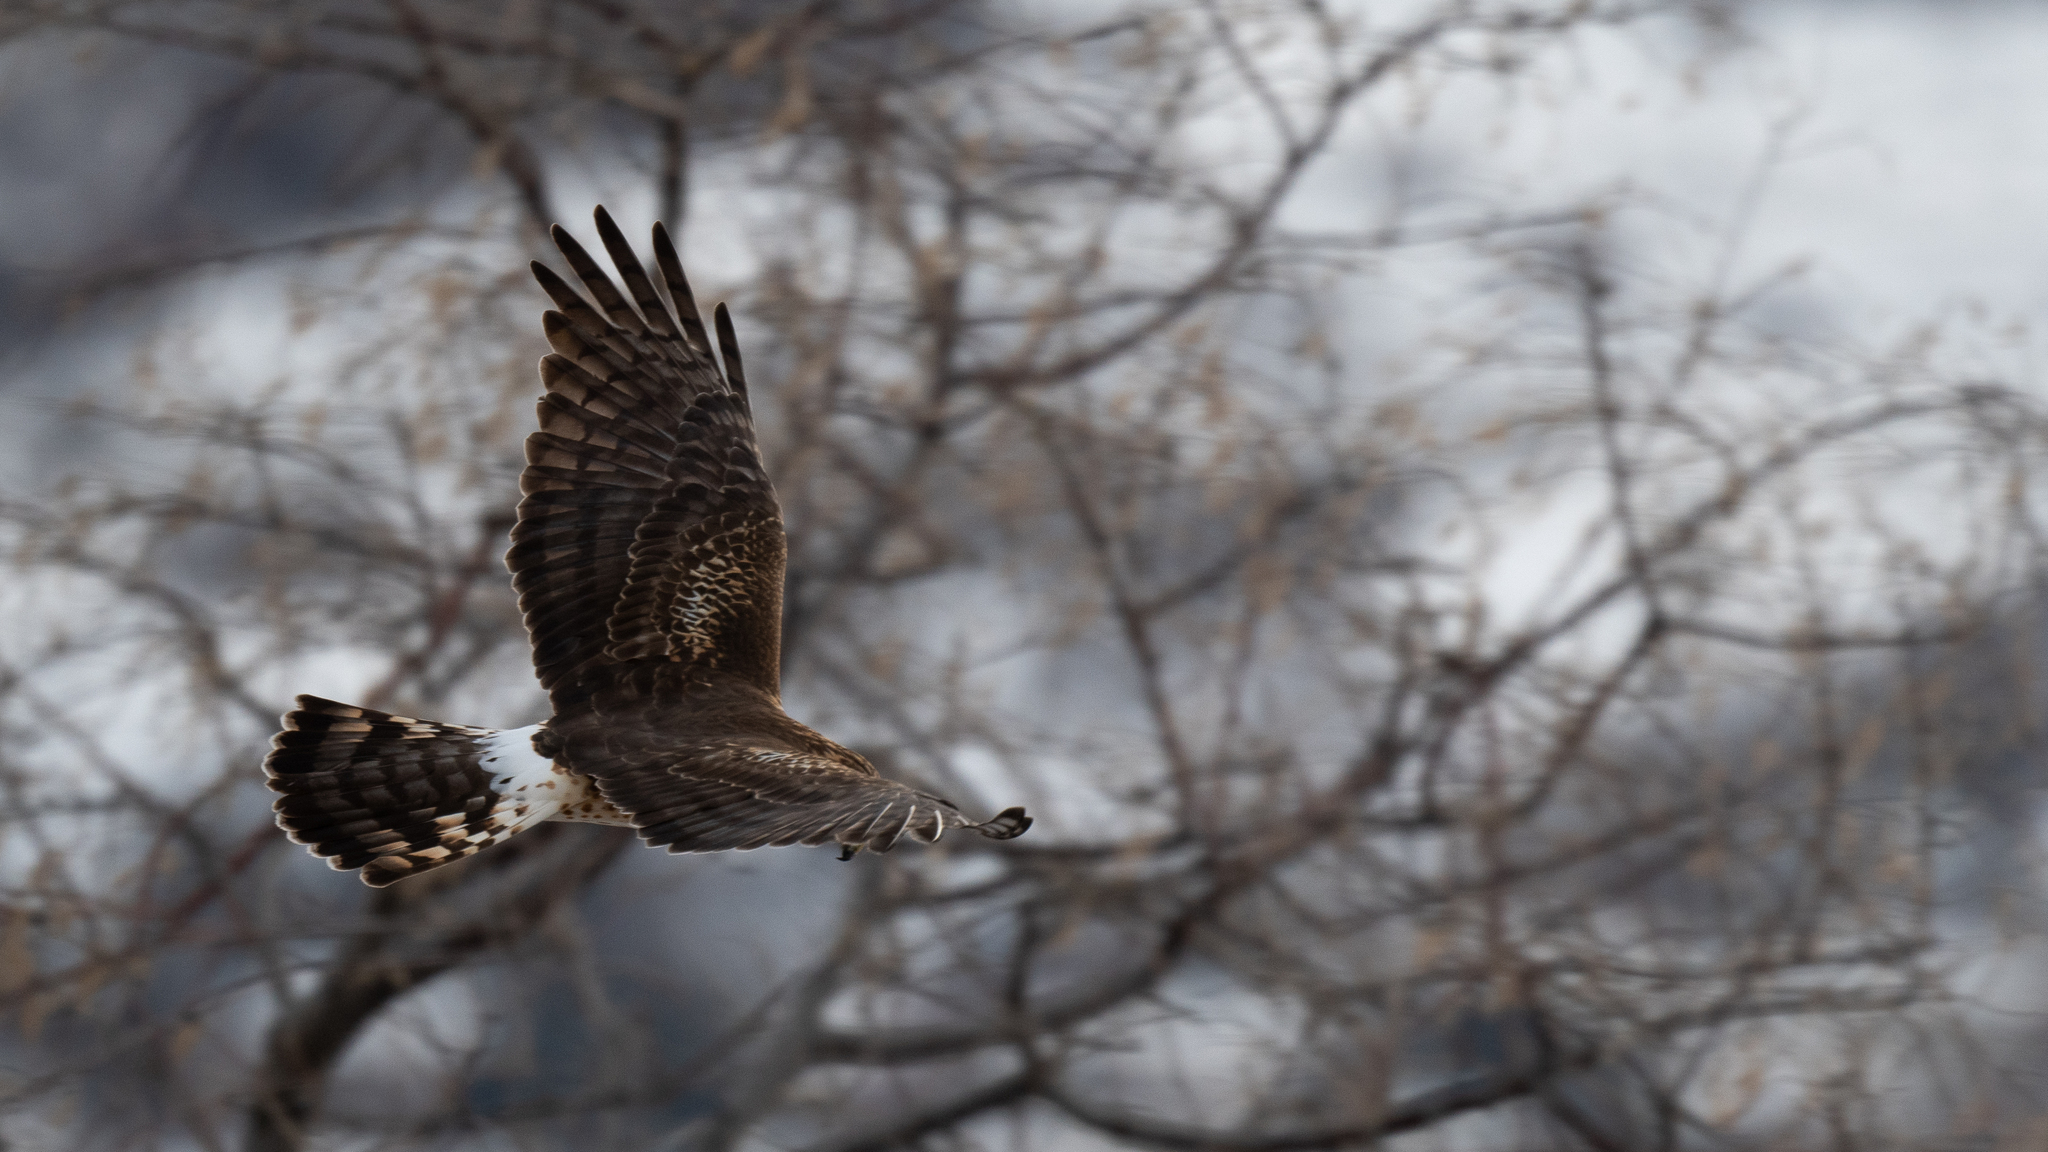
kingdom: Animalia
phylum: Chordata
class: Aves
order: Accipitriformes
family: Accipitridae
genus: Circus
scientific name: Circus cyaneus
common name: Hen harrier
